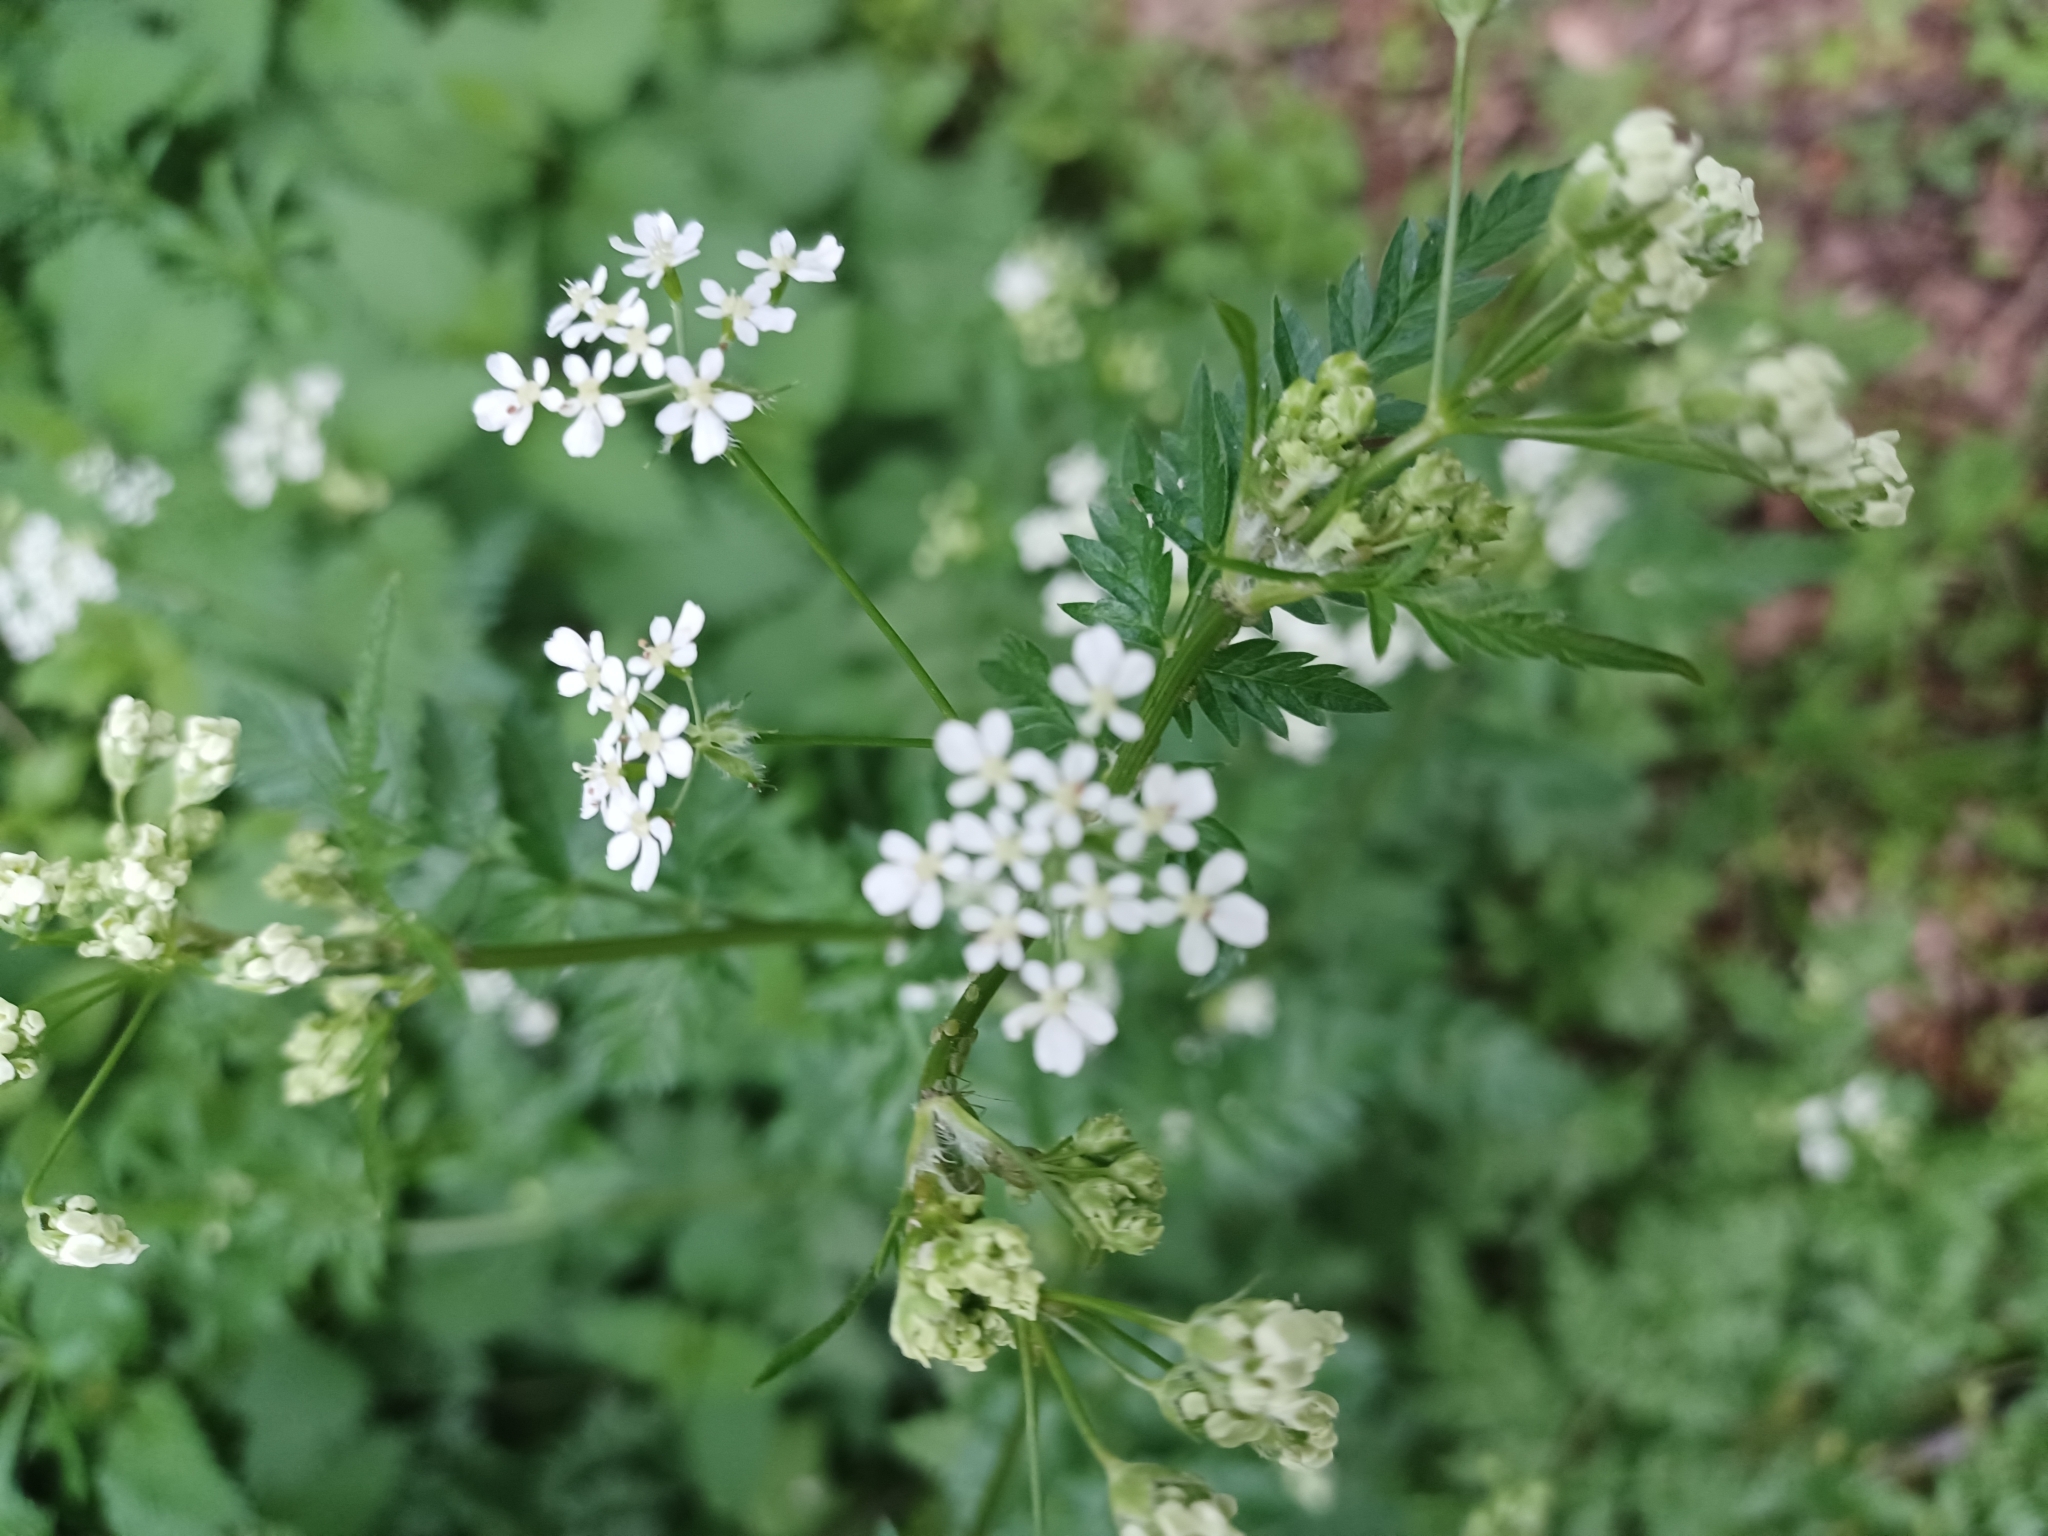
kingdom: Plantae
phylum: Tracheophyta
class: Magnoliopsida
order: Apiales
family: Apiaceae
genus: Anthriscus
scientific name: Anthriscus sylvestris
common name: Cow parsley
